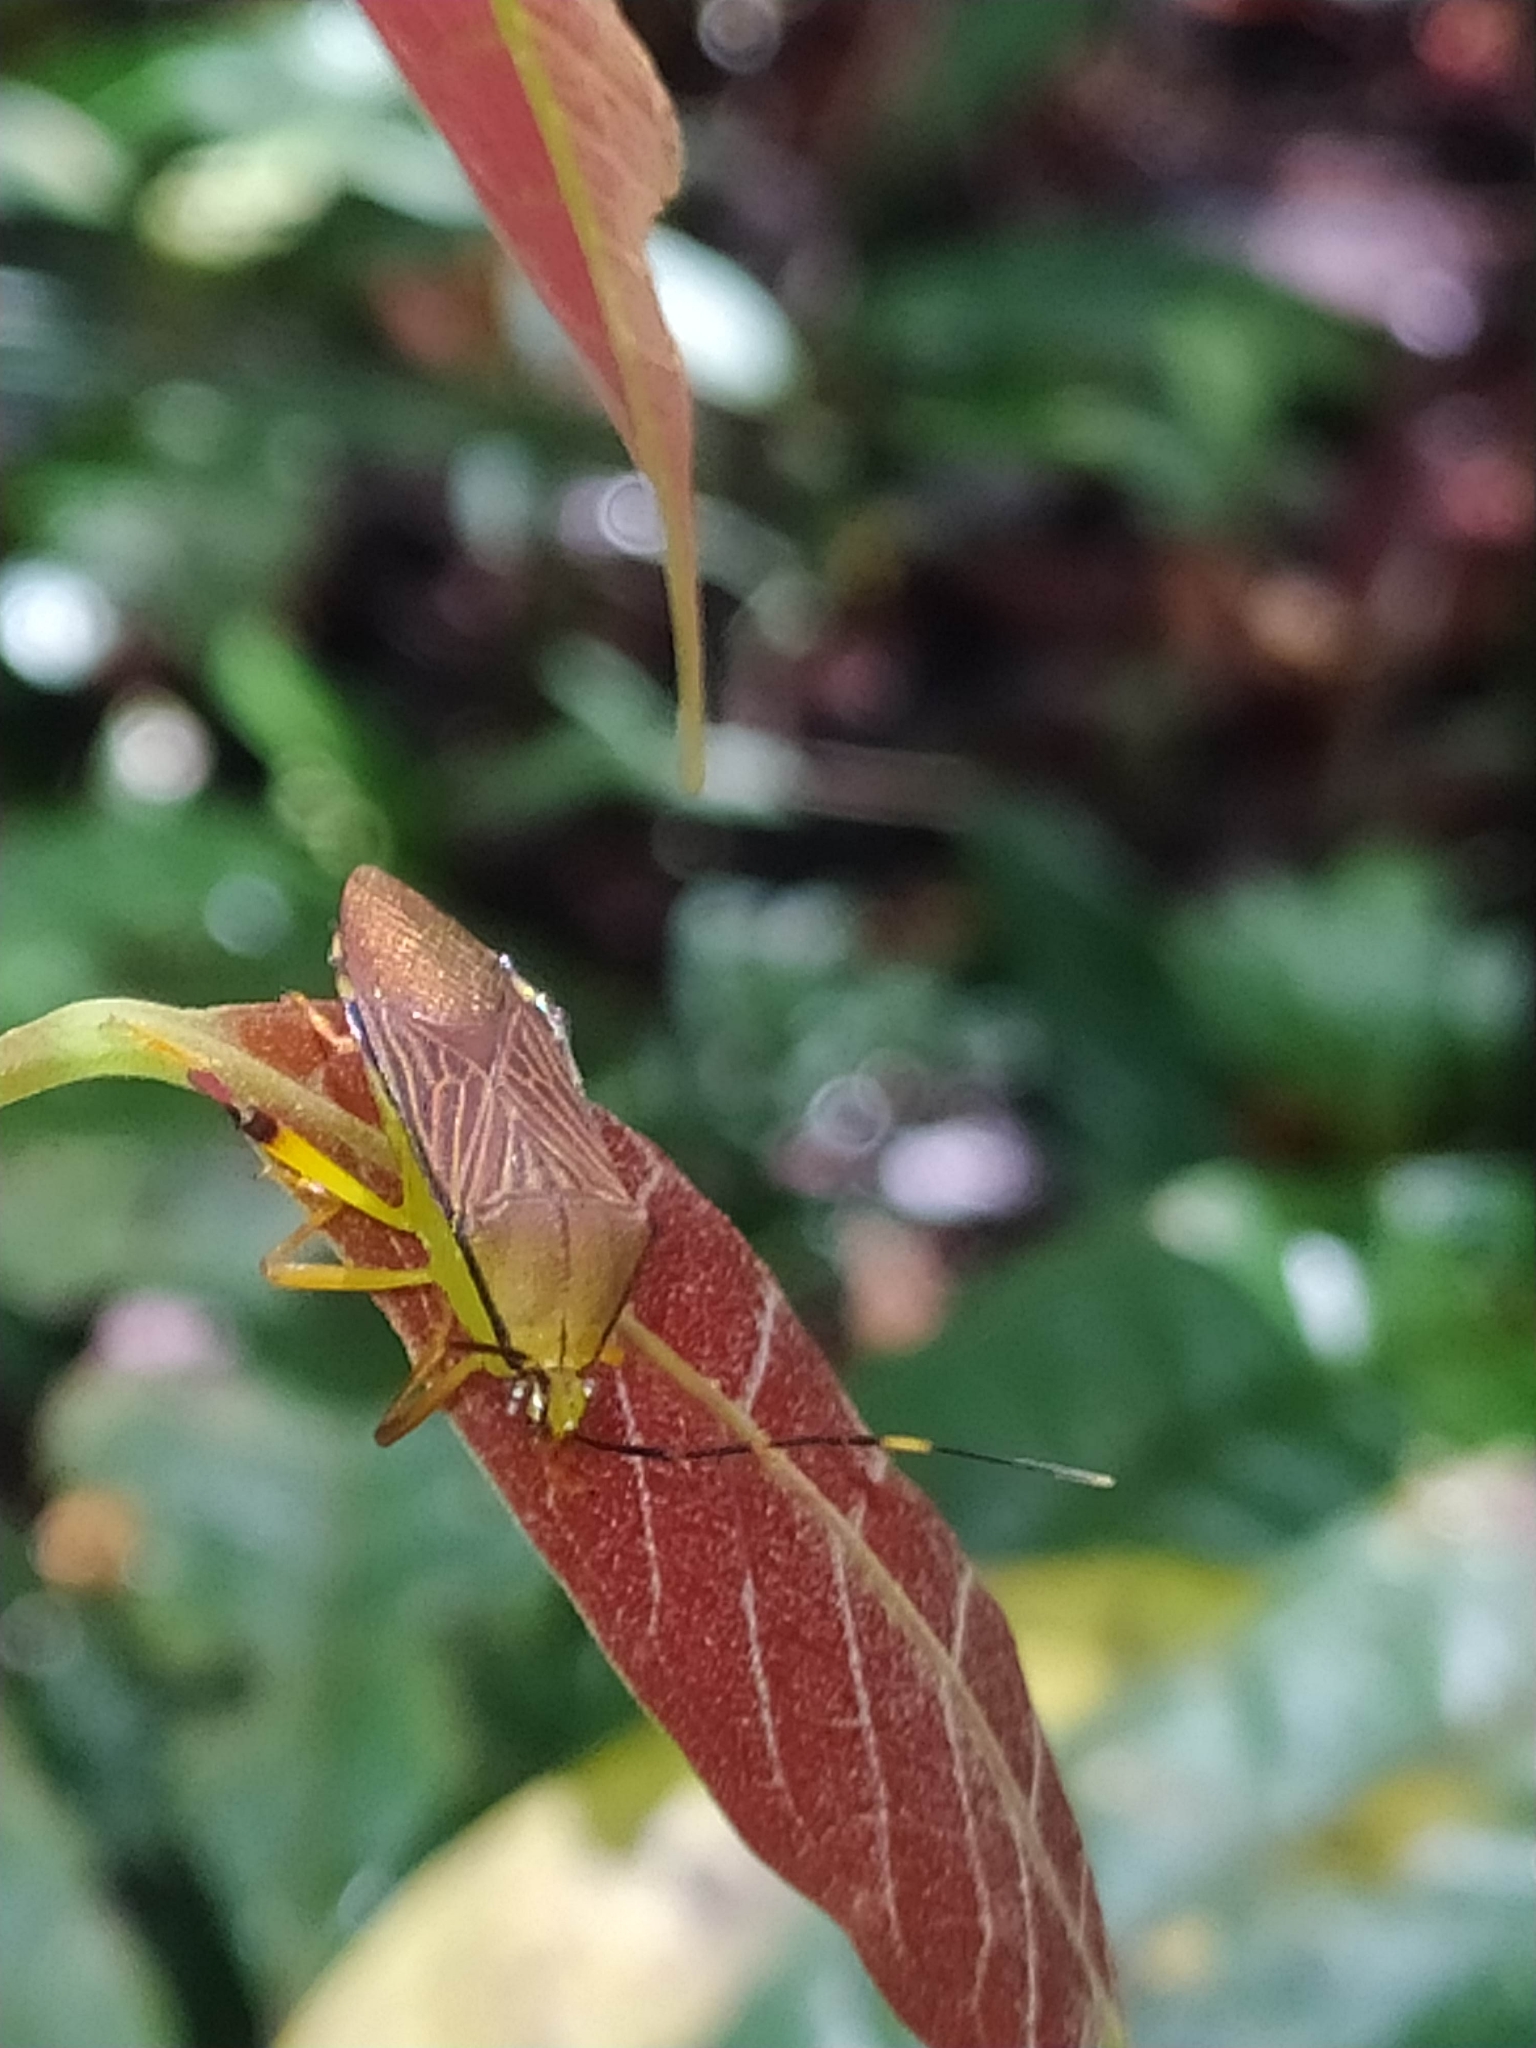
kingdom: Animalia
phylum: Arthropoda
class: Insecta
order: Hemiptera
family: Coreidae
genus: Melucha
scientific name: Melucha dilatata
